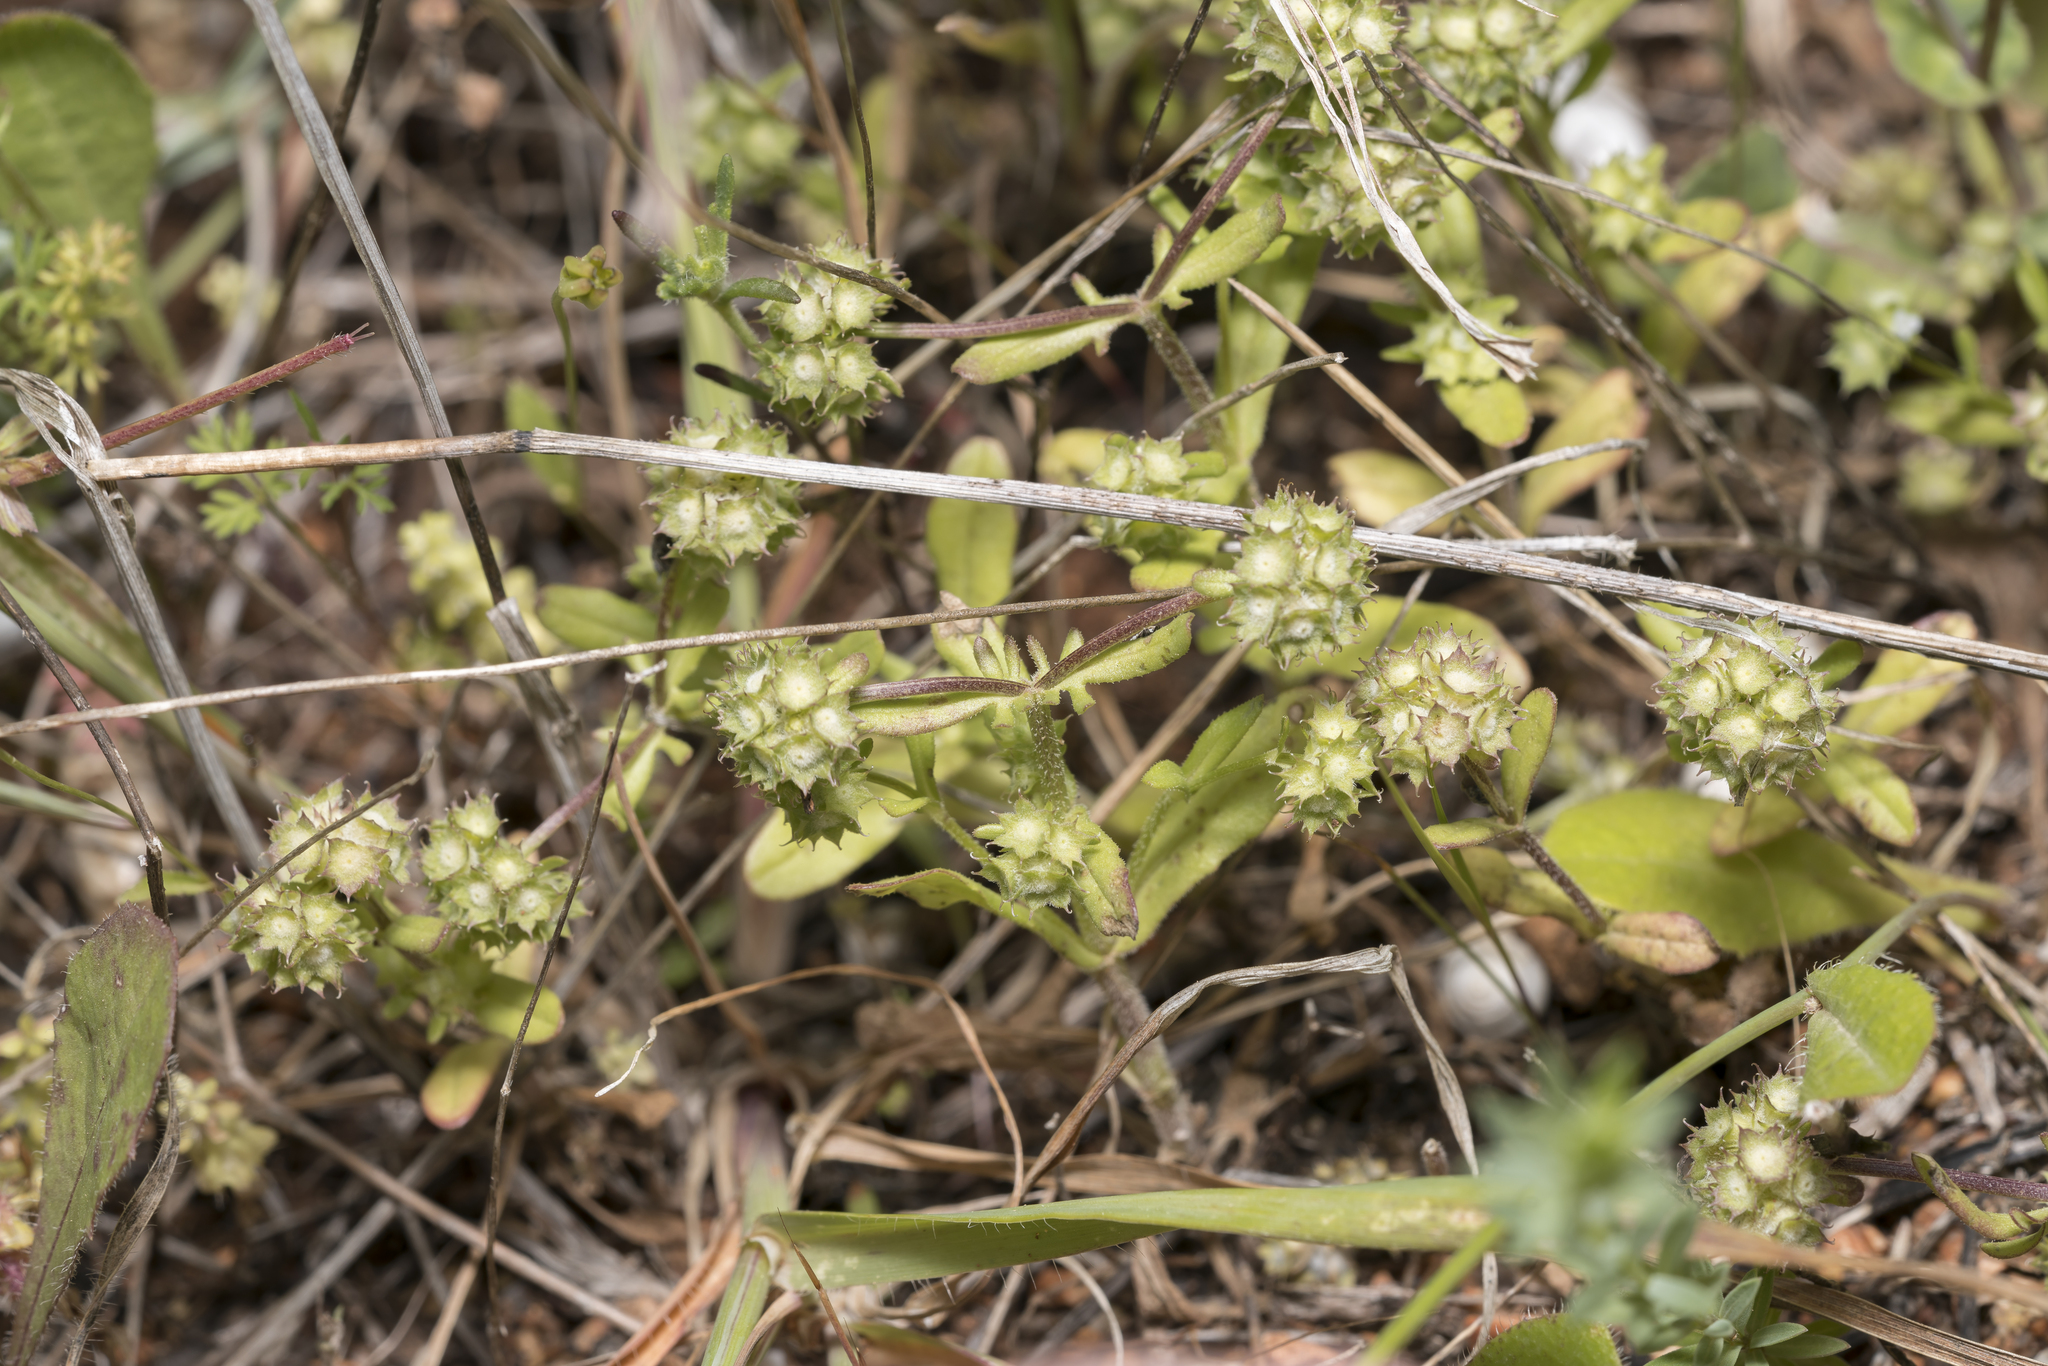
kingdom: Plantae
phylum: Tracheophyta
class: Magnoliopsida
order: Dipsacales
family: Caprifoliaceae
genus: Valerianella
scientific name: Valerianella discoidea
